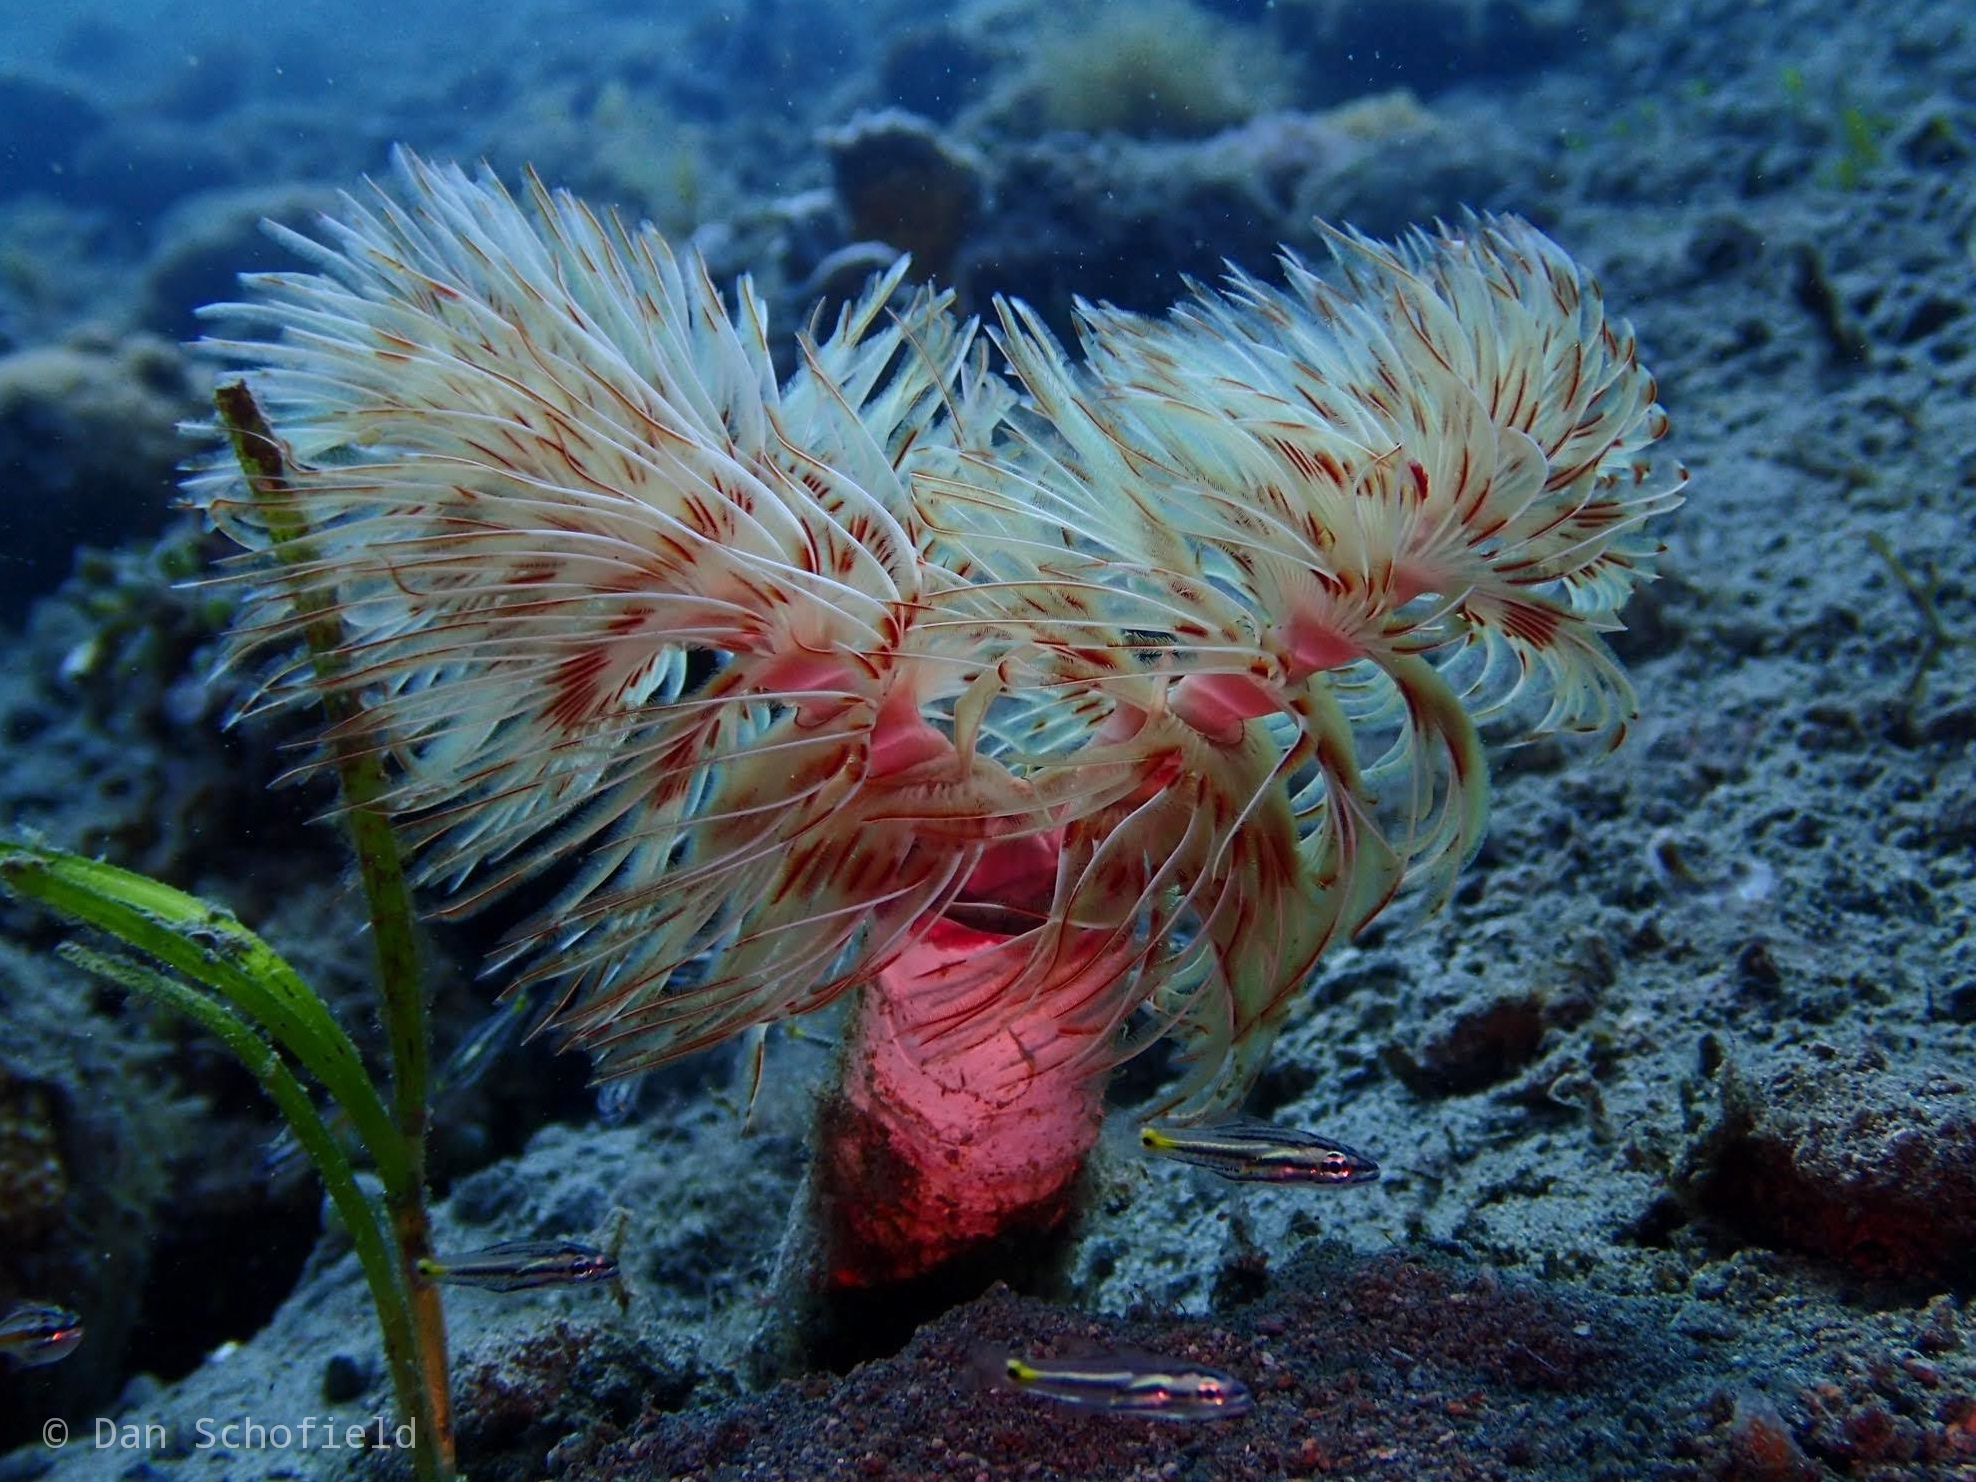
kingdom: Animalia
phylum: Annelida
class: Polychaeta
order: Sabellida
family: Serpulidae
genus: Protula
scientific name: Protula bispiralis
